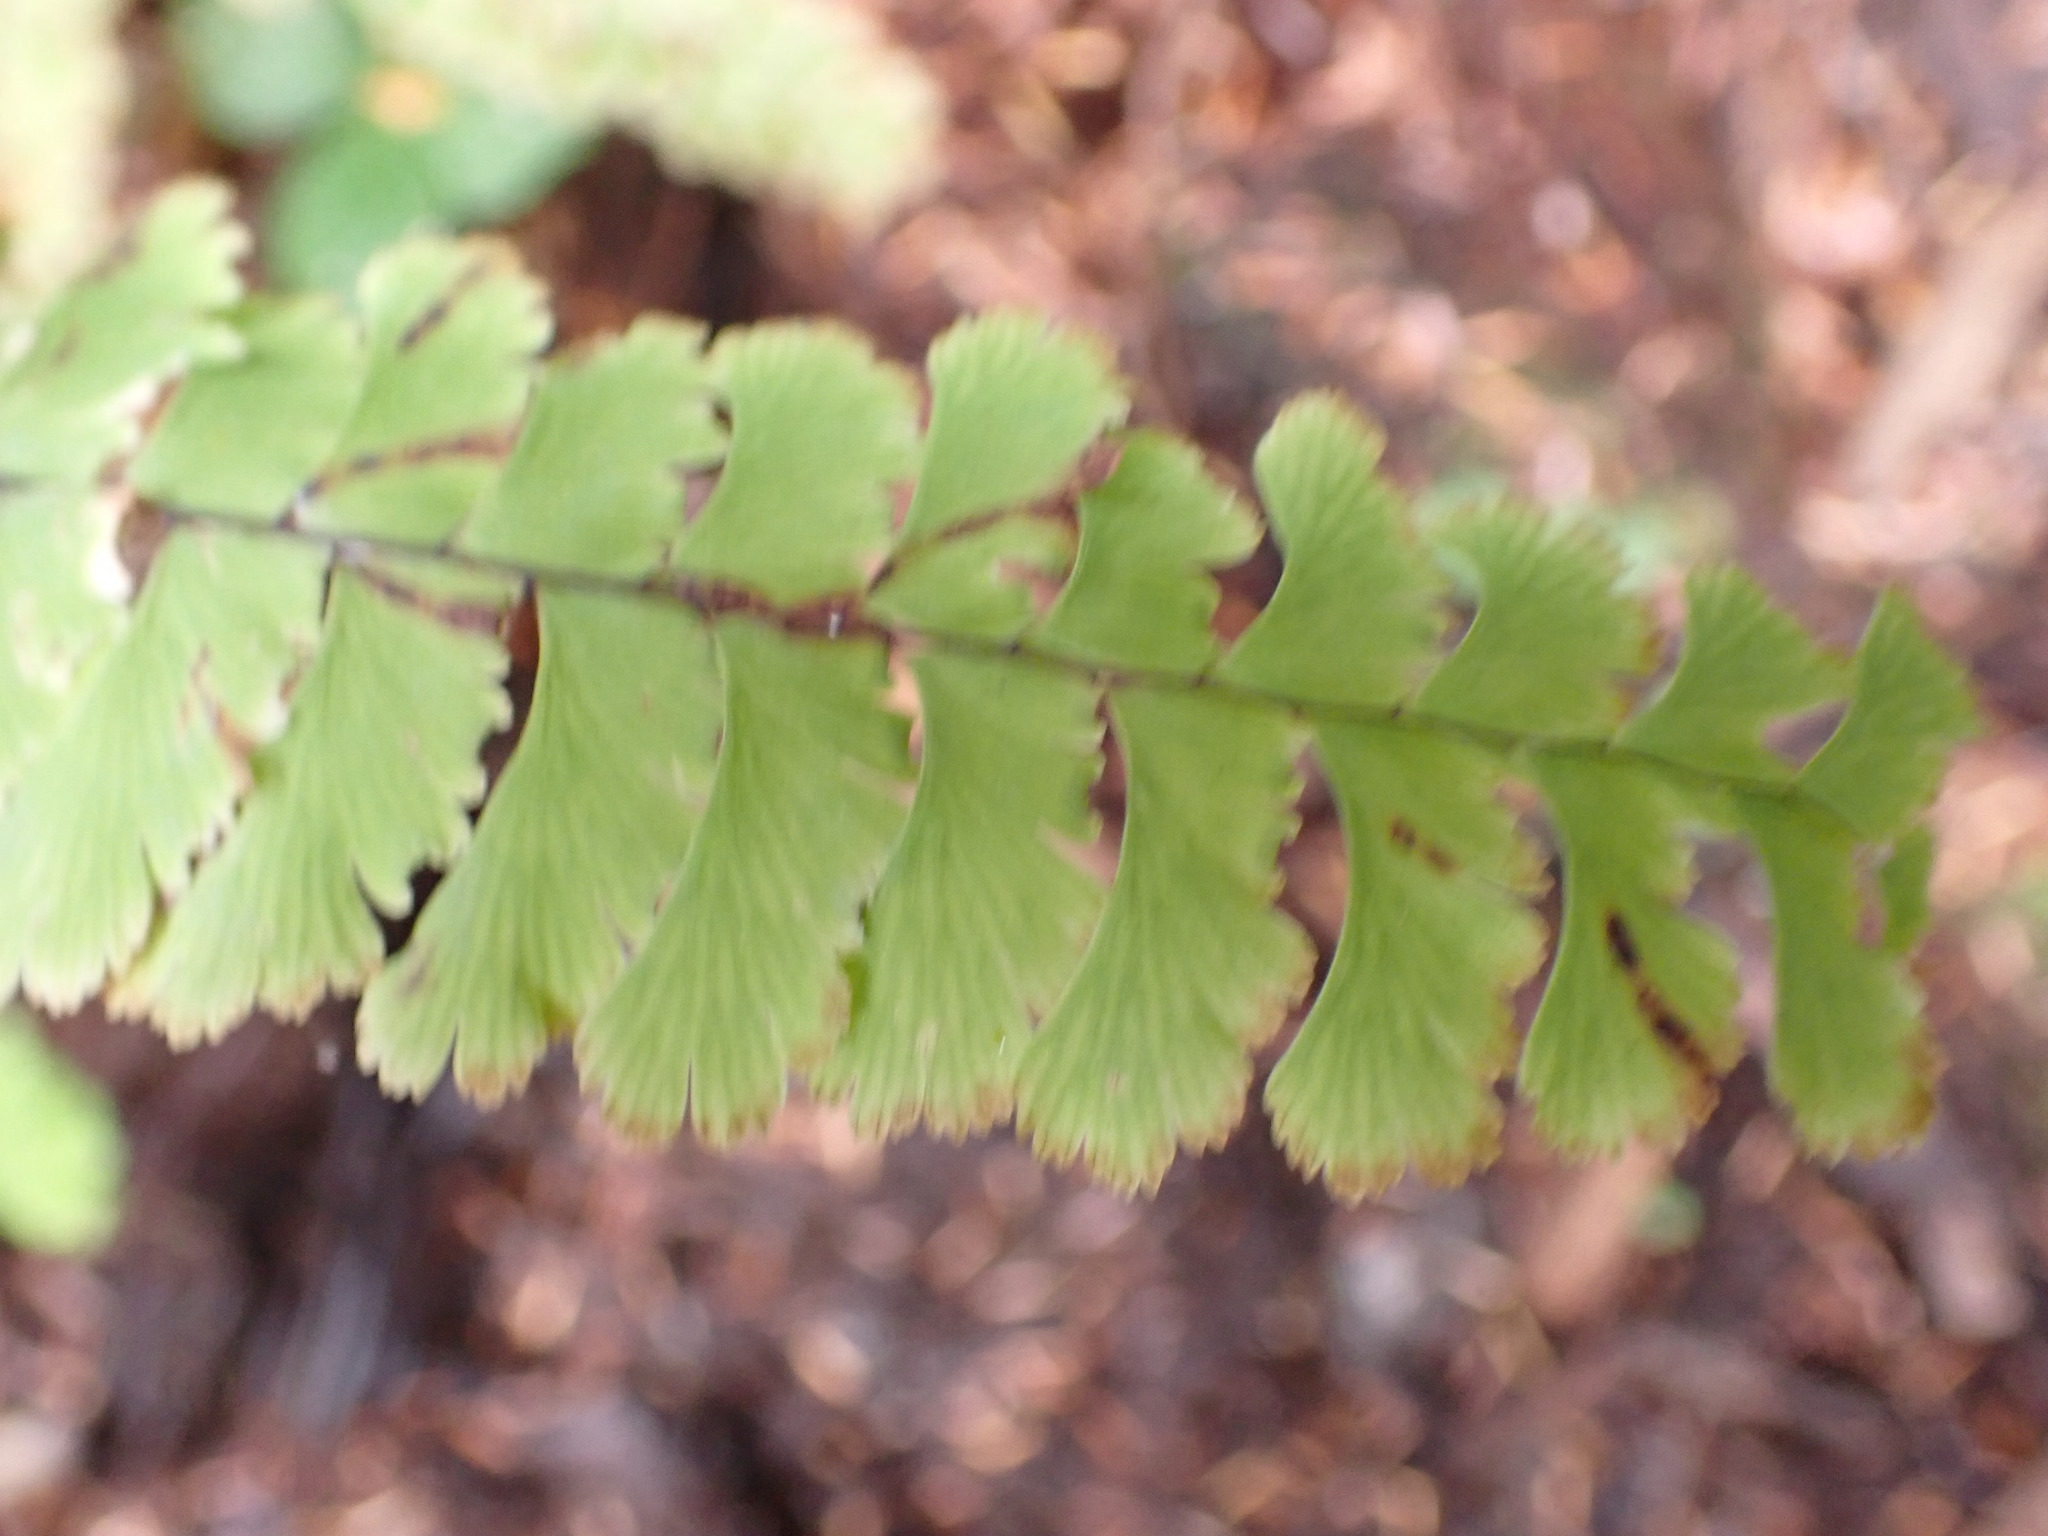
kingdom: Plantae
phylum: Tracheophyta
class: Polypodiopsida
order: Polypodiales
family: Pteridaceae
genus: Adiantum
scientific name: Adiantum aleuticum
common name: Aleutian maidenhair fern
